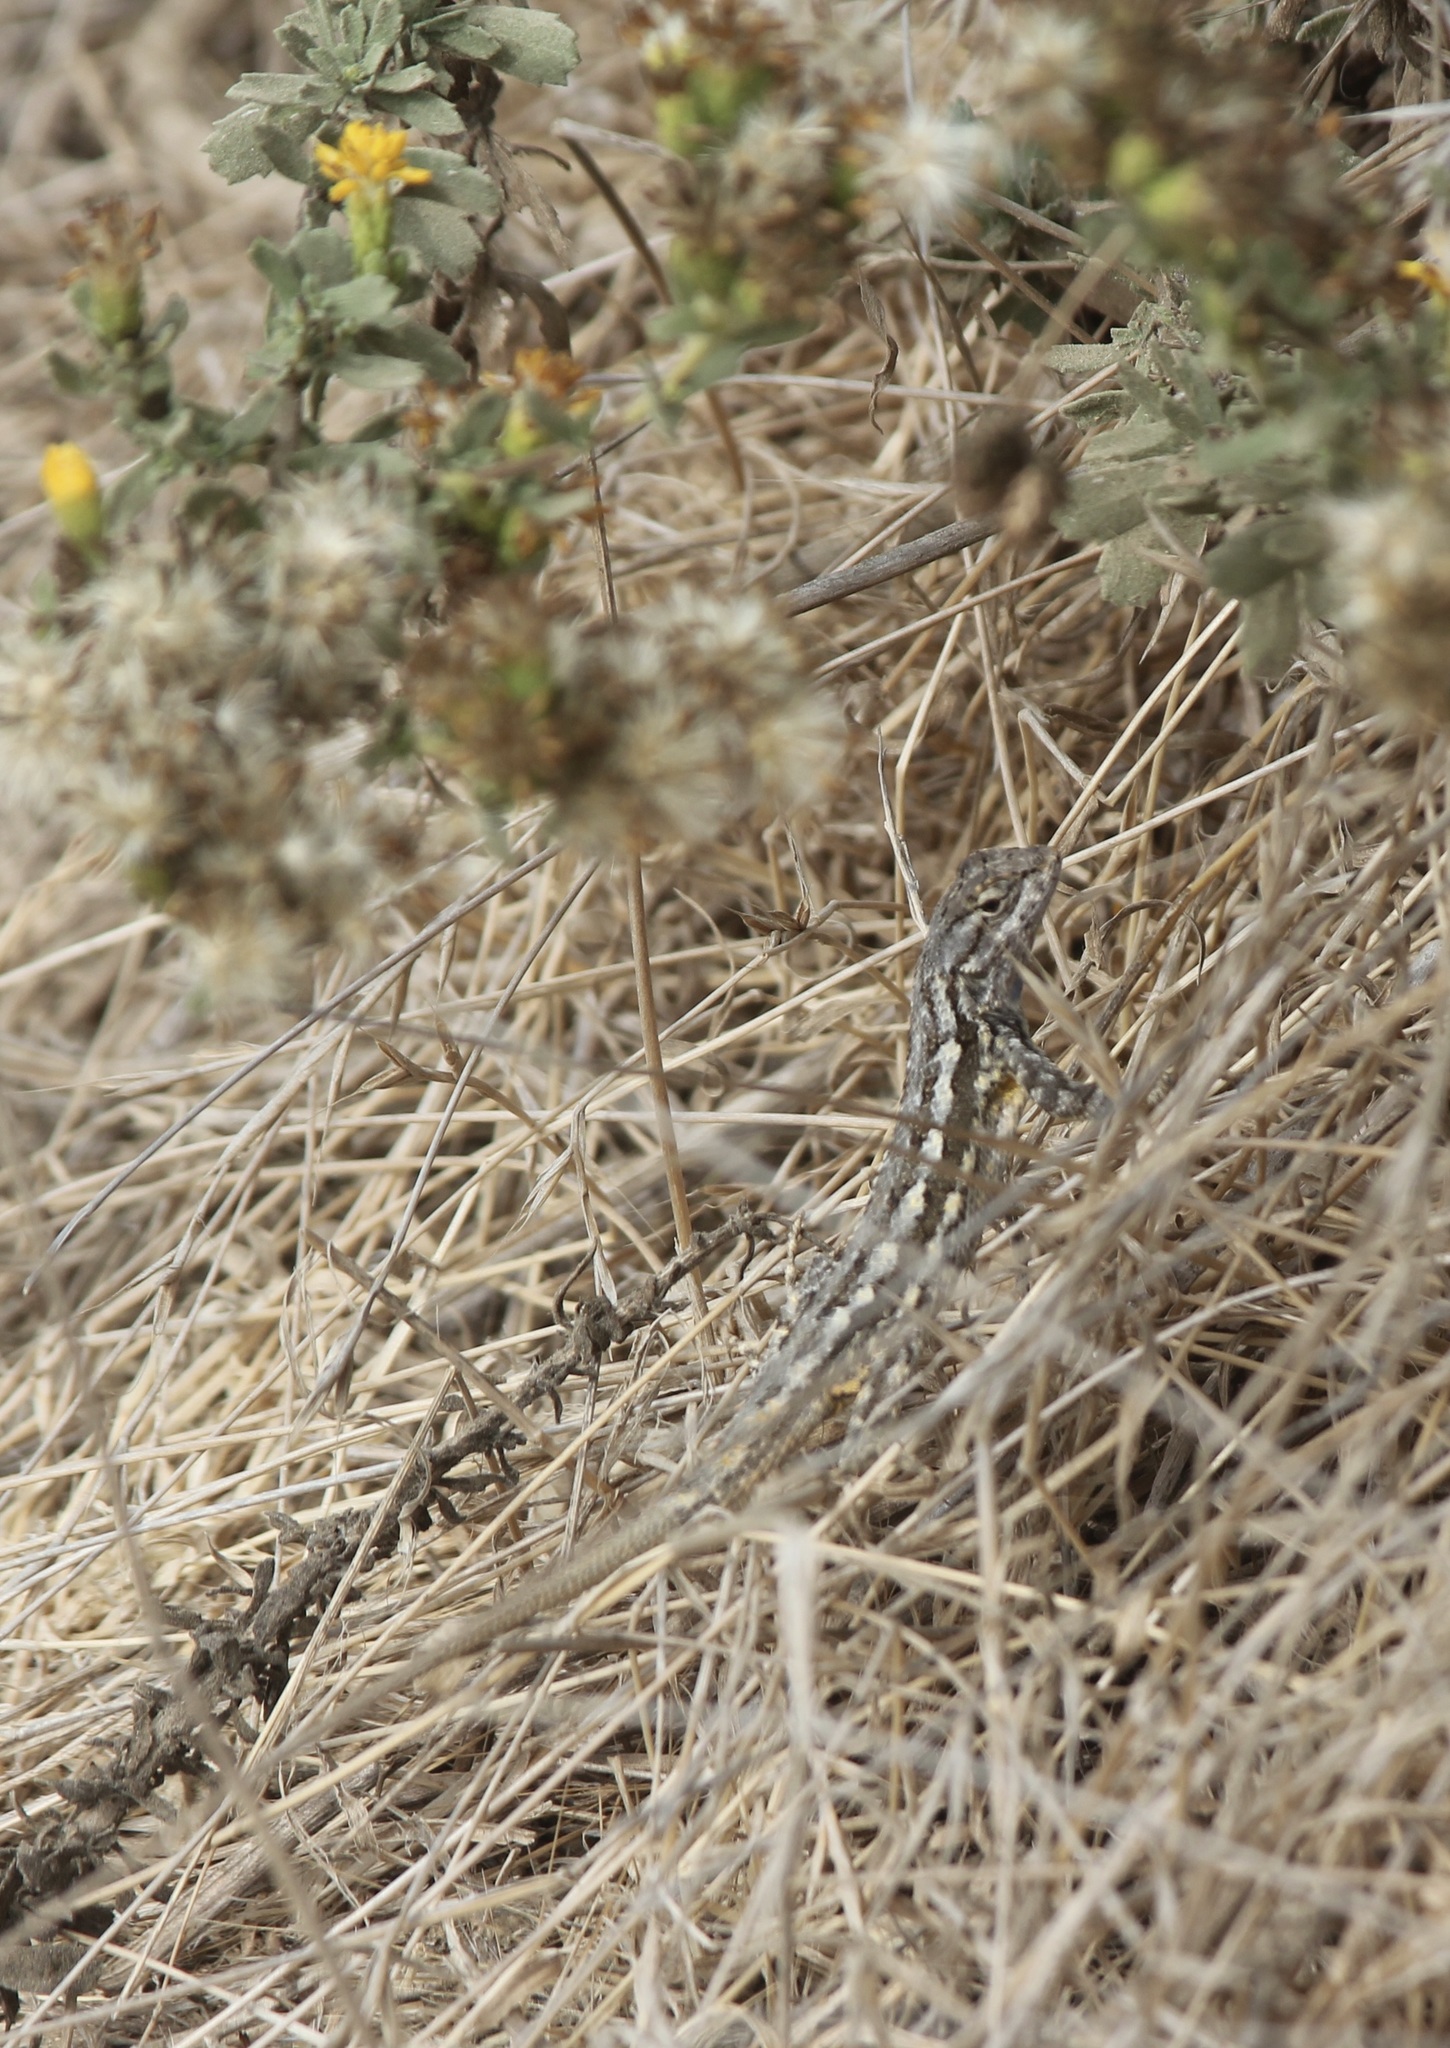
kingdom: Animalia
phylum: Chordata
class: Squamata
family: Phrynosomatidae
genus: Sceloporus
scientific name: Sceloporus occidentalis
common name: Western fence lizard
